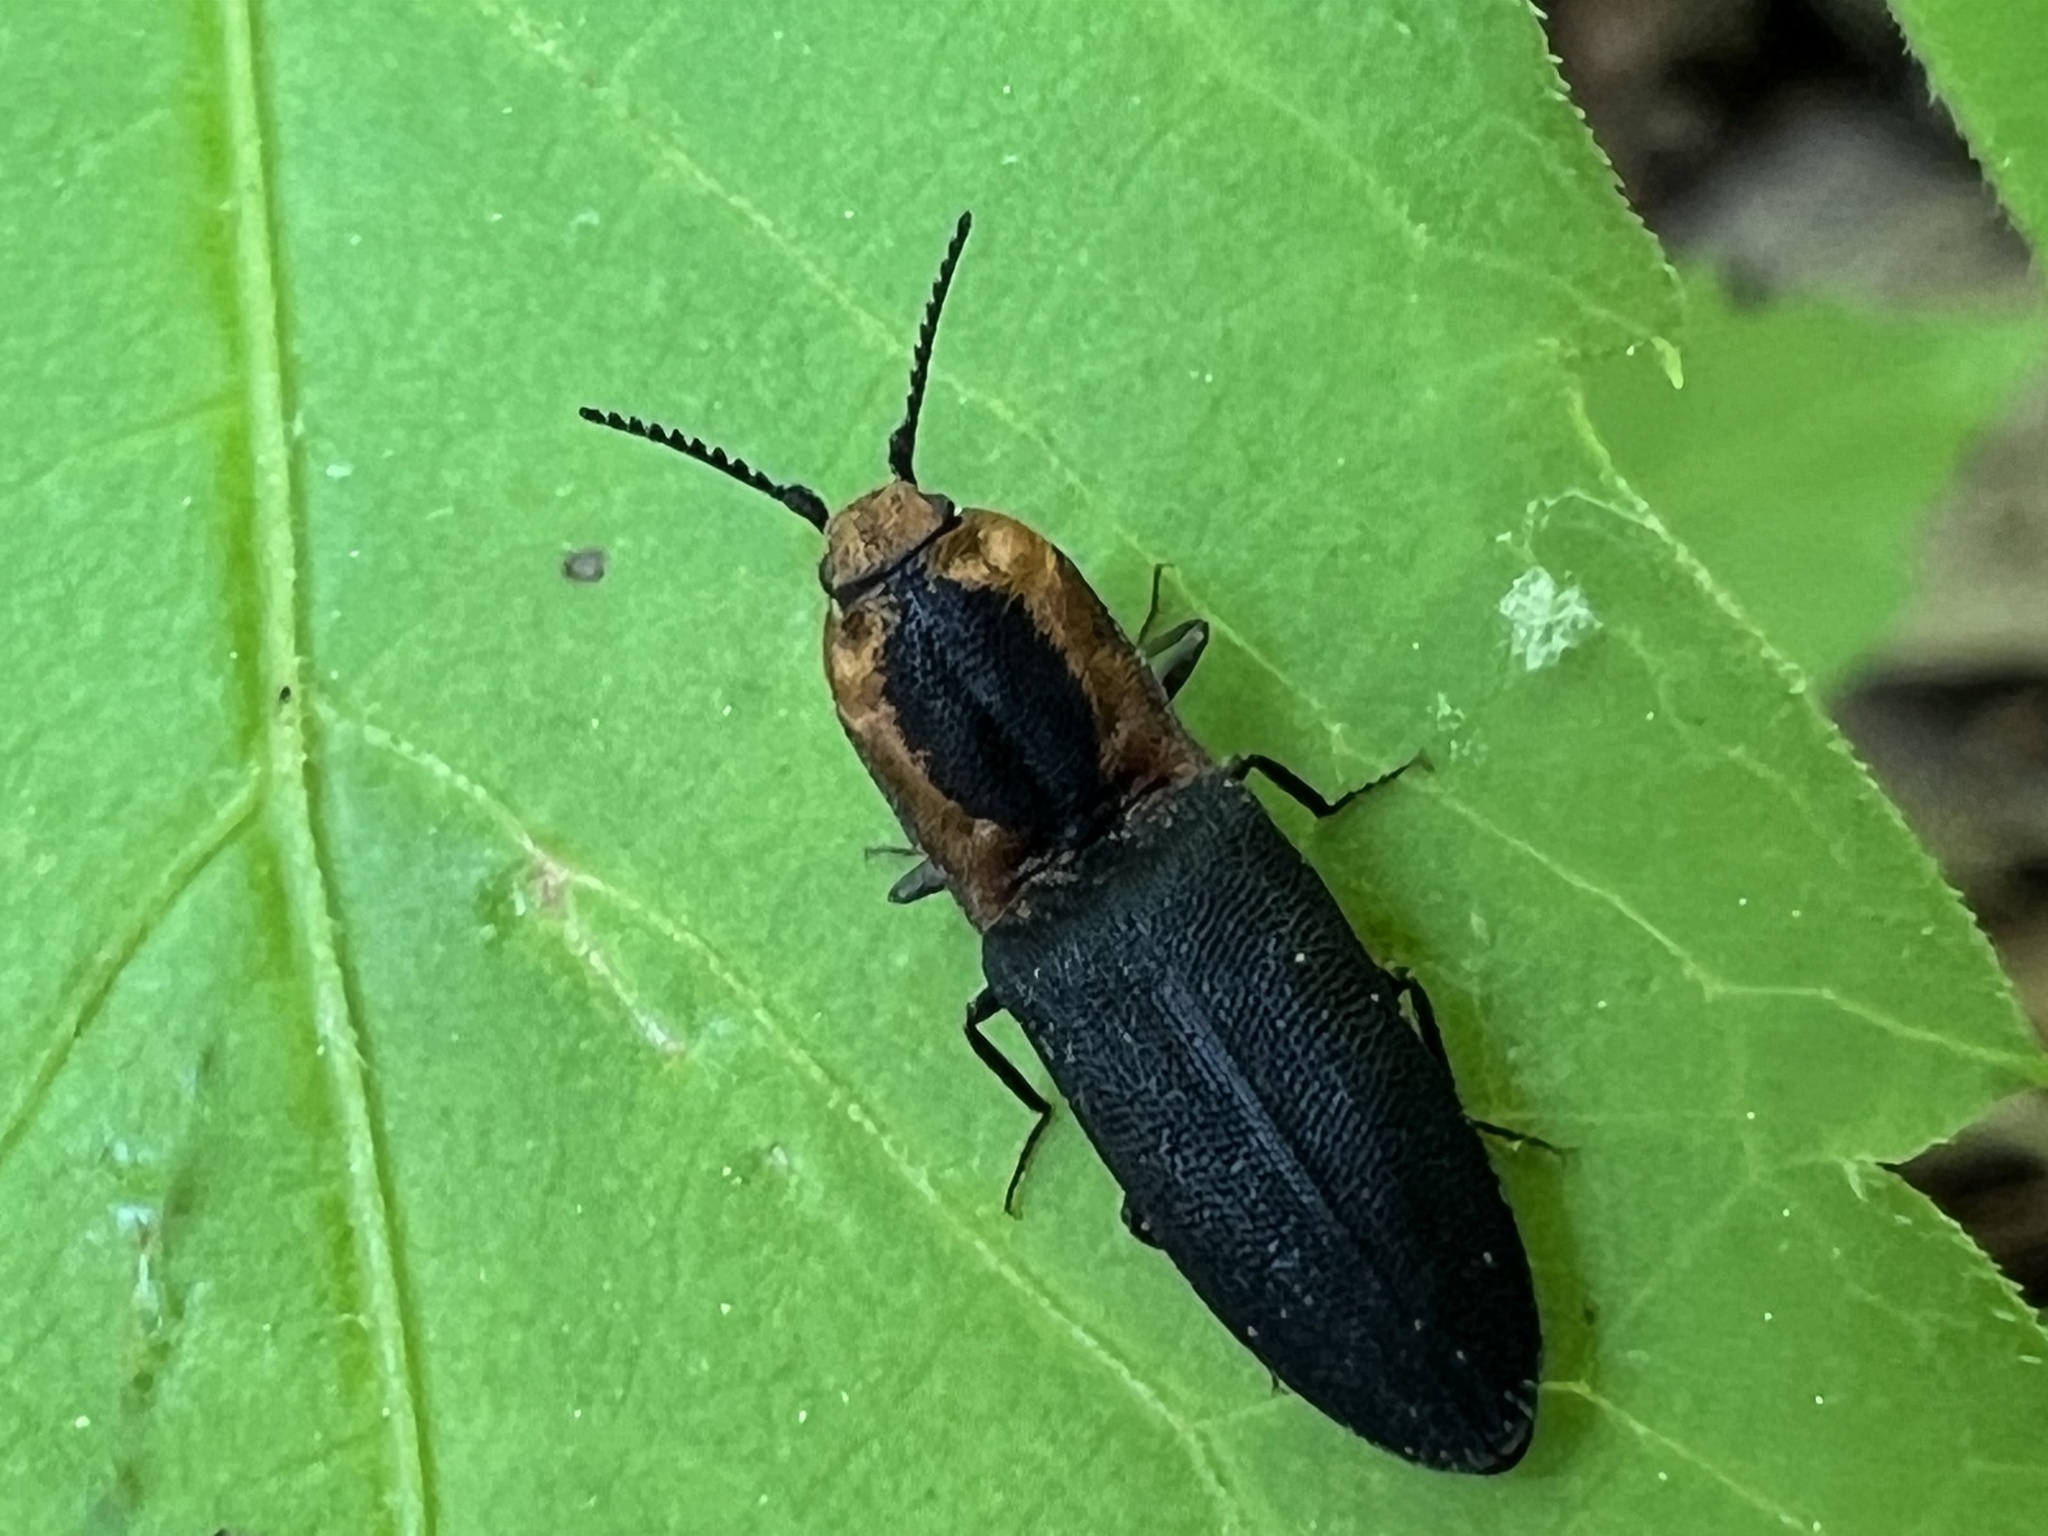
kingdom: Animalia
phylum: Arthropoda
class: Insecta
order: Coleoptera
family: Elateridae
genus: Lacon
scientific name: Lacon discoideus
